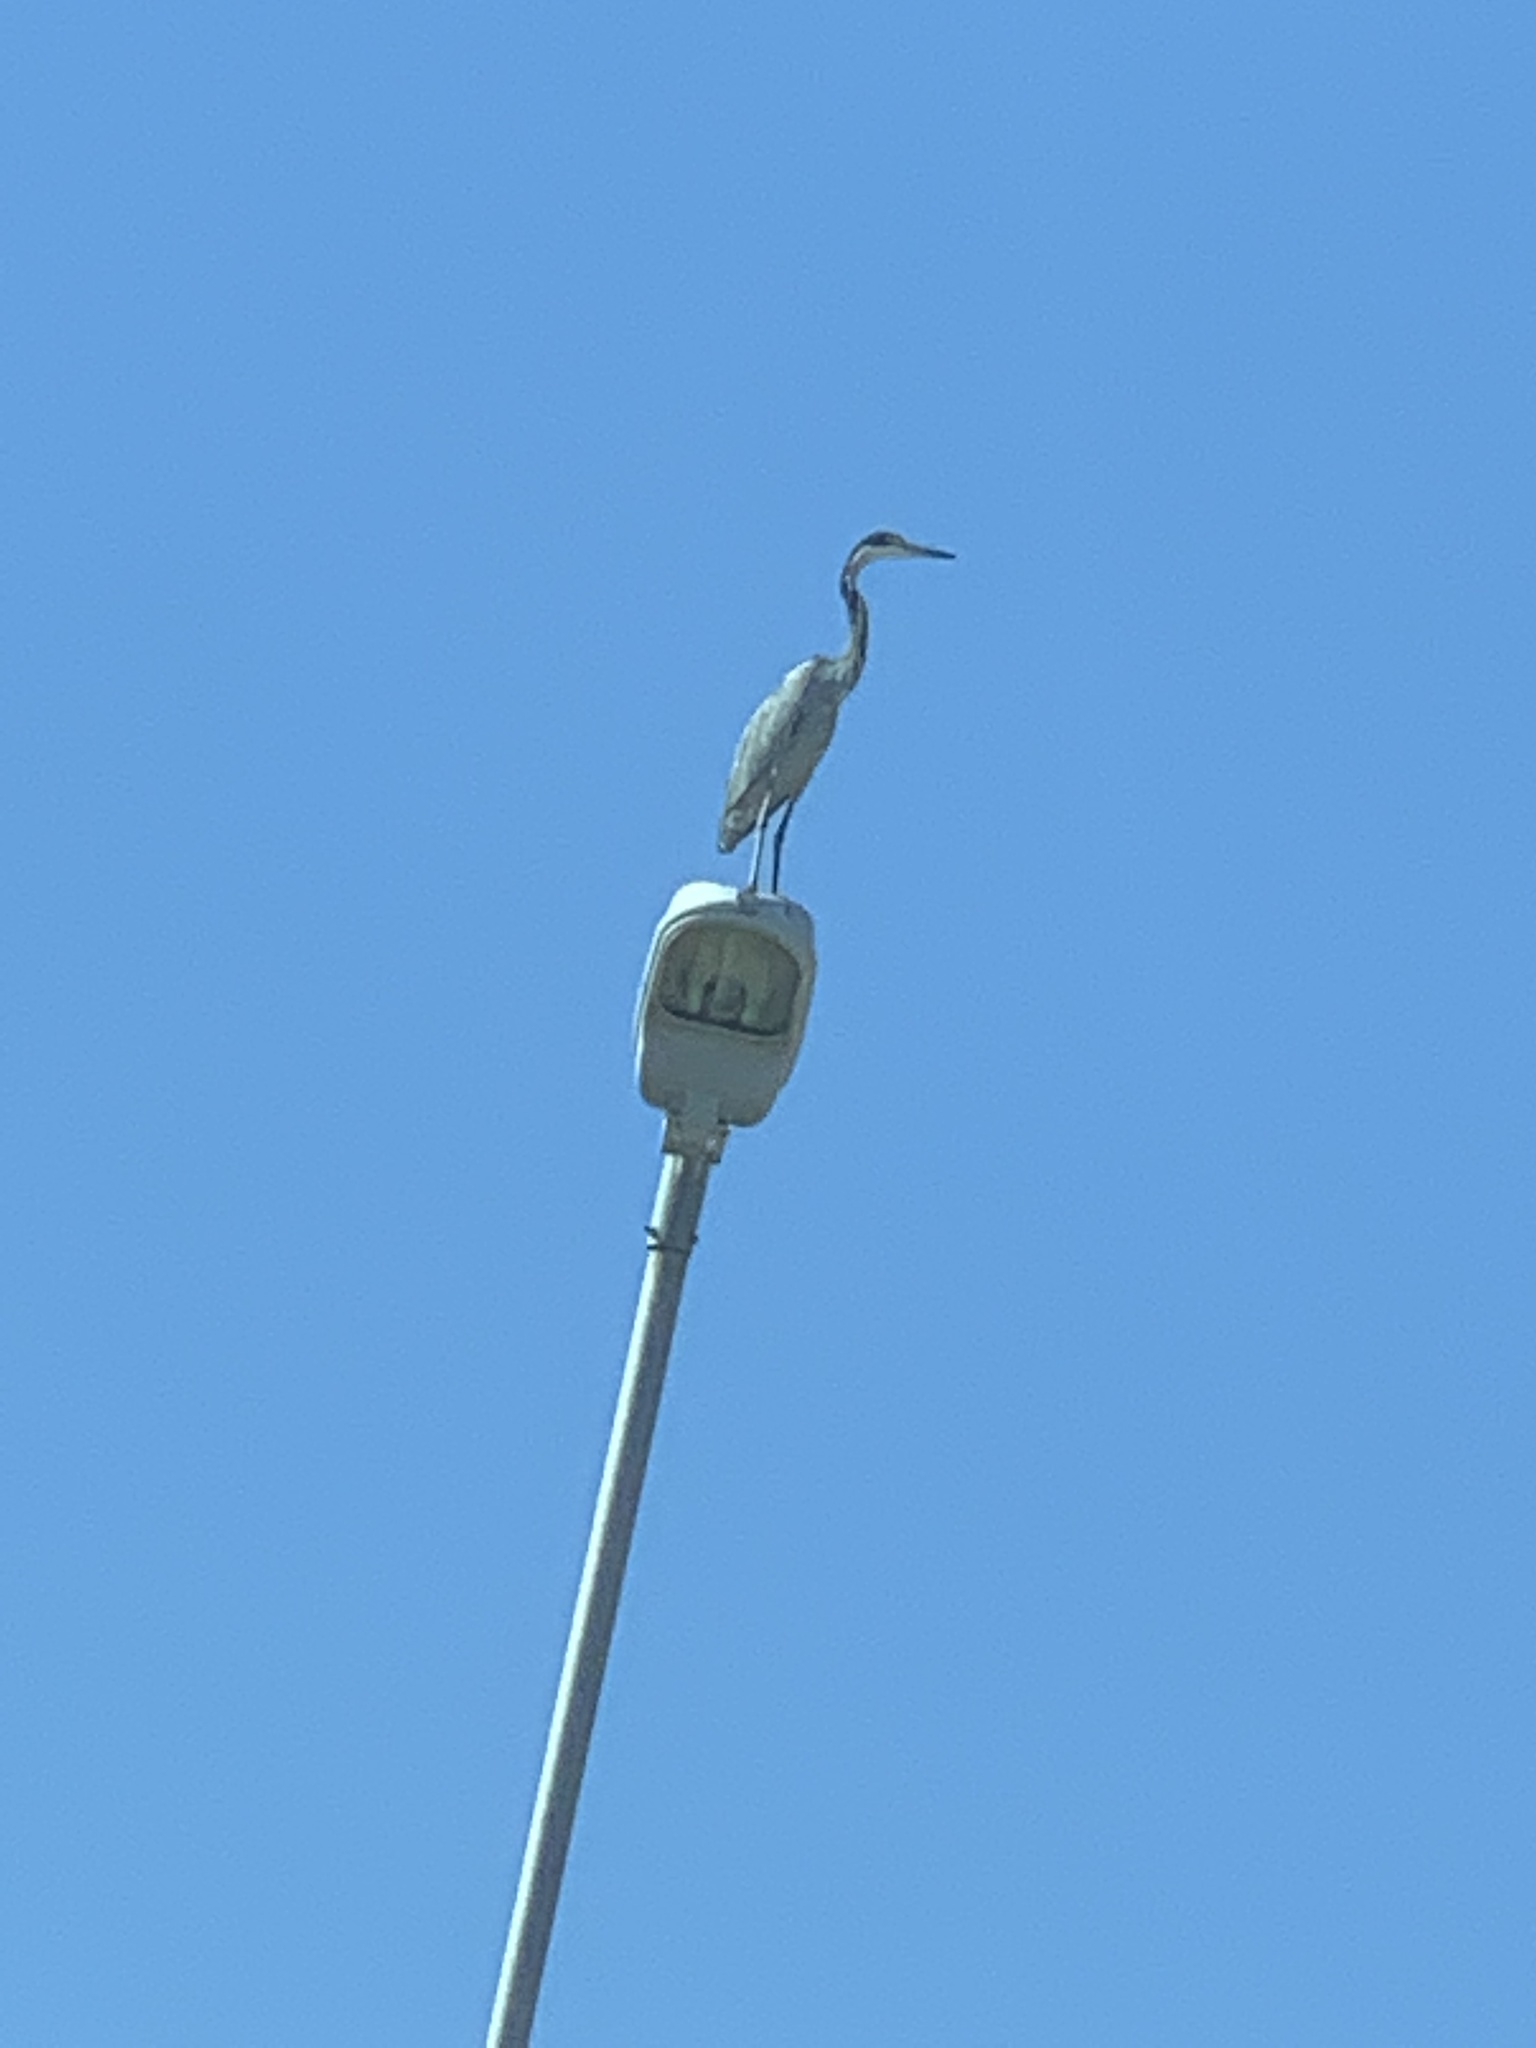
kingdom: Animalia
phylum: Chordata
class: Aves
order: Pelecaniformes
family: Ardeidae
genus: Ardea
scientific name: Ardea melanocephala
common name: Black-headed heron
